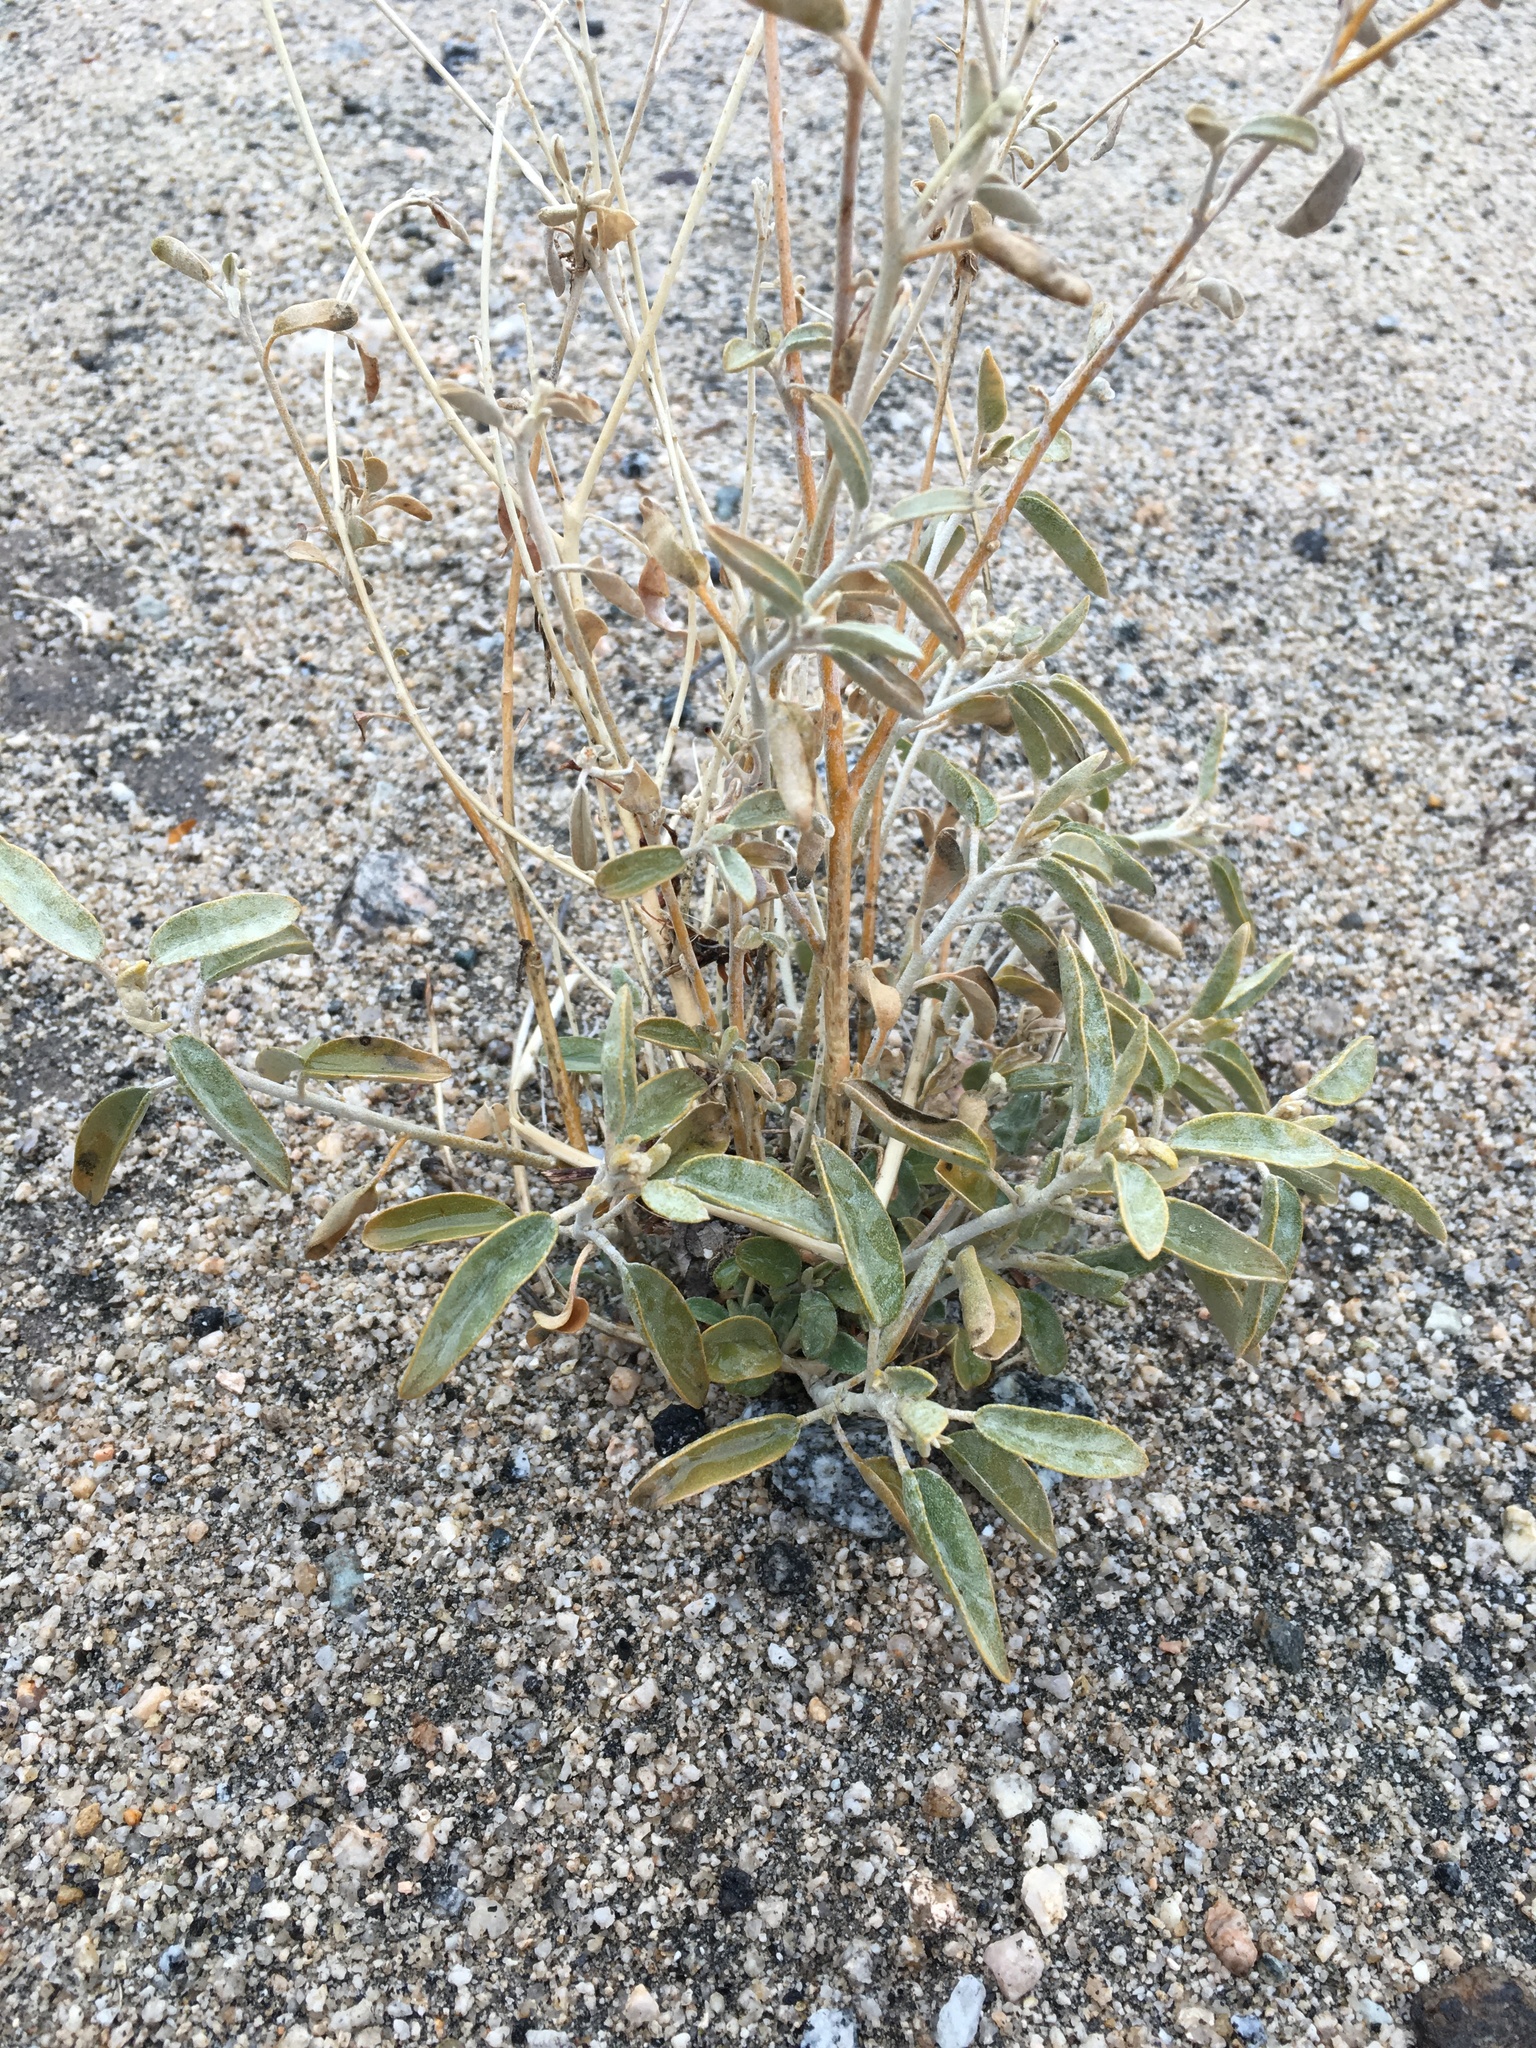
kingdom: Plantae
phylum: Tracheophyta
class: Magnoliopsida
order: Malpighiales
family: Euphorbiaceae
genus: Croton
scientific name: Croton californicus
